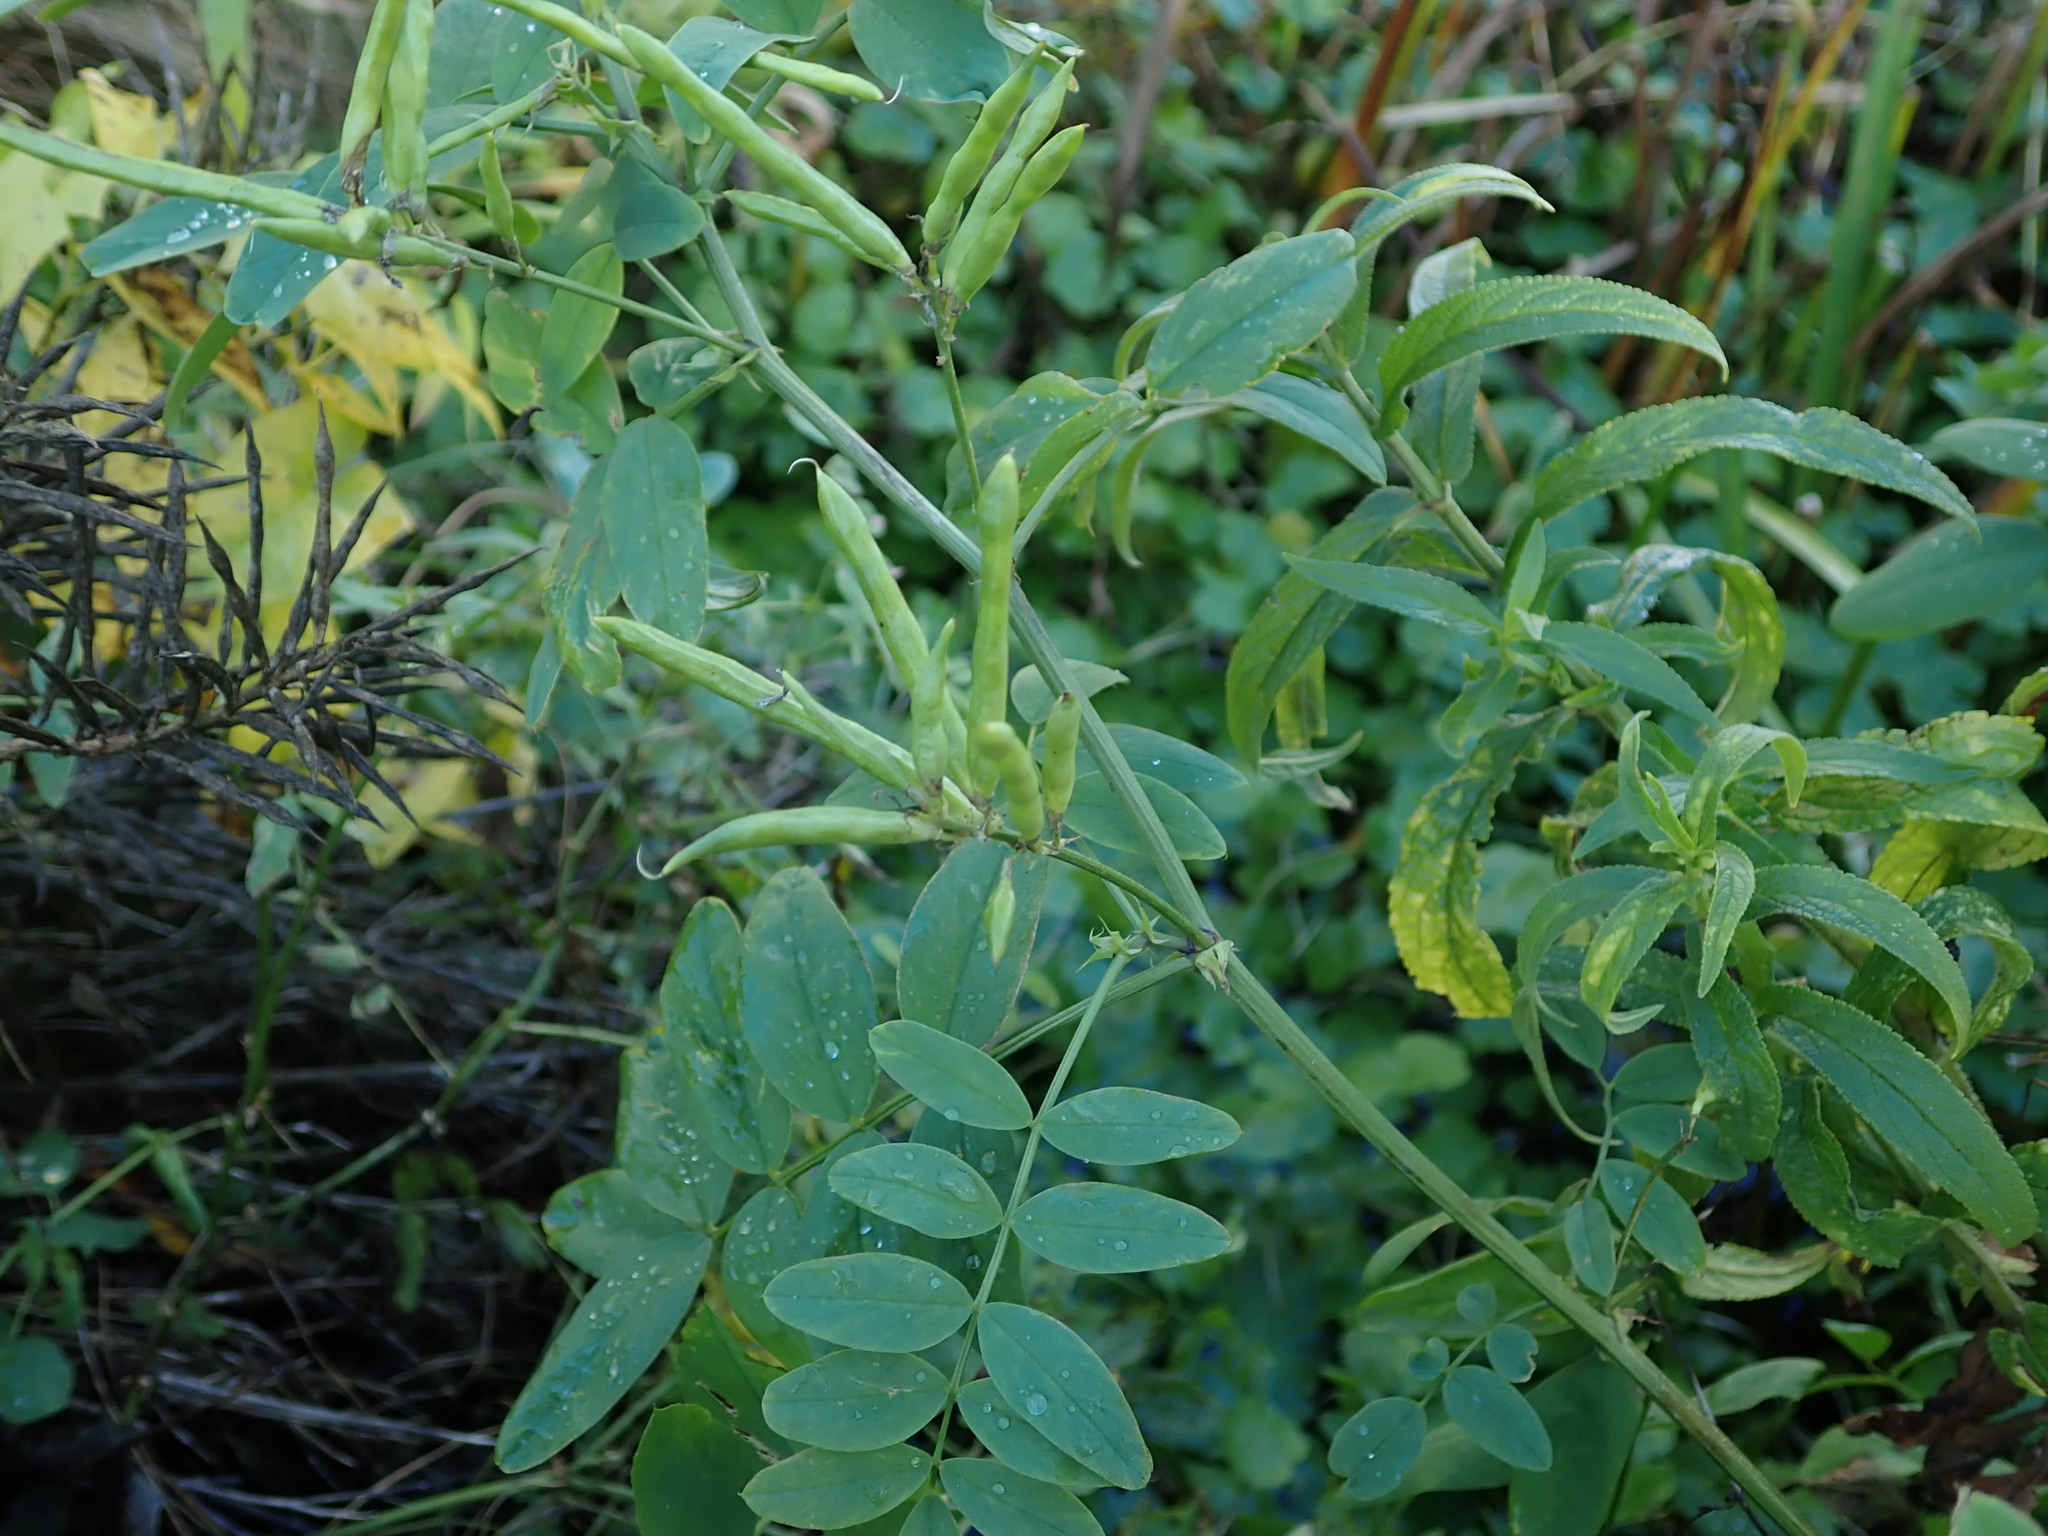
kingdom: Plantae
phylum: Tracheophyta
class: Magnoliopsida
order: Fabales
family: Fabaceae
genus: Galega
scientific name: Galega officinalis
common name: Goat's-rue
